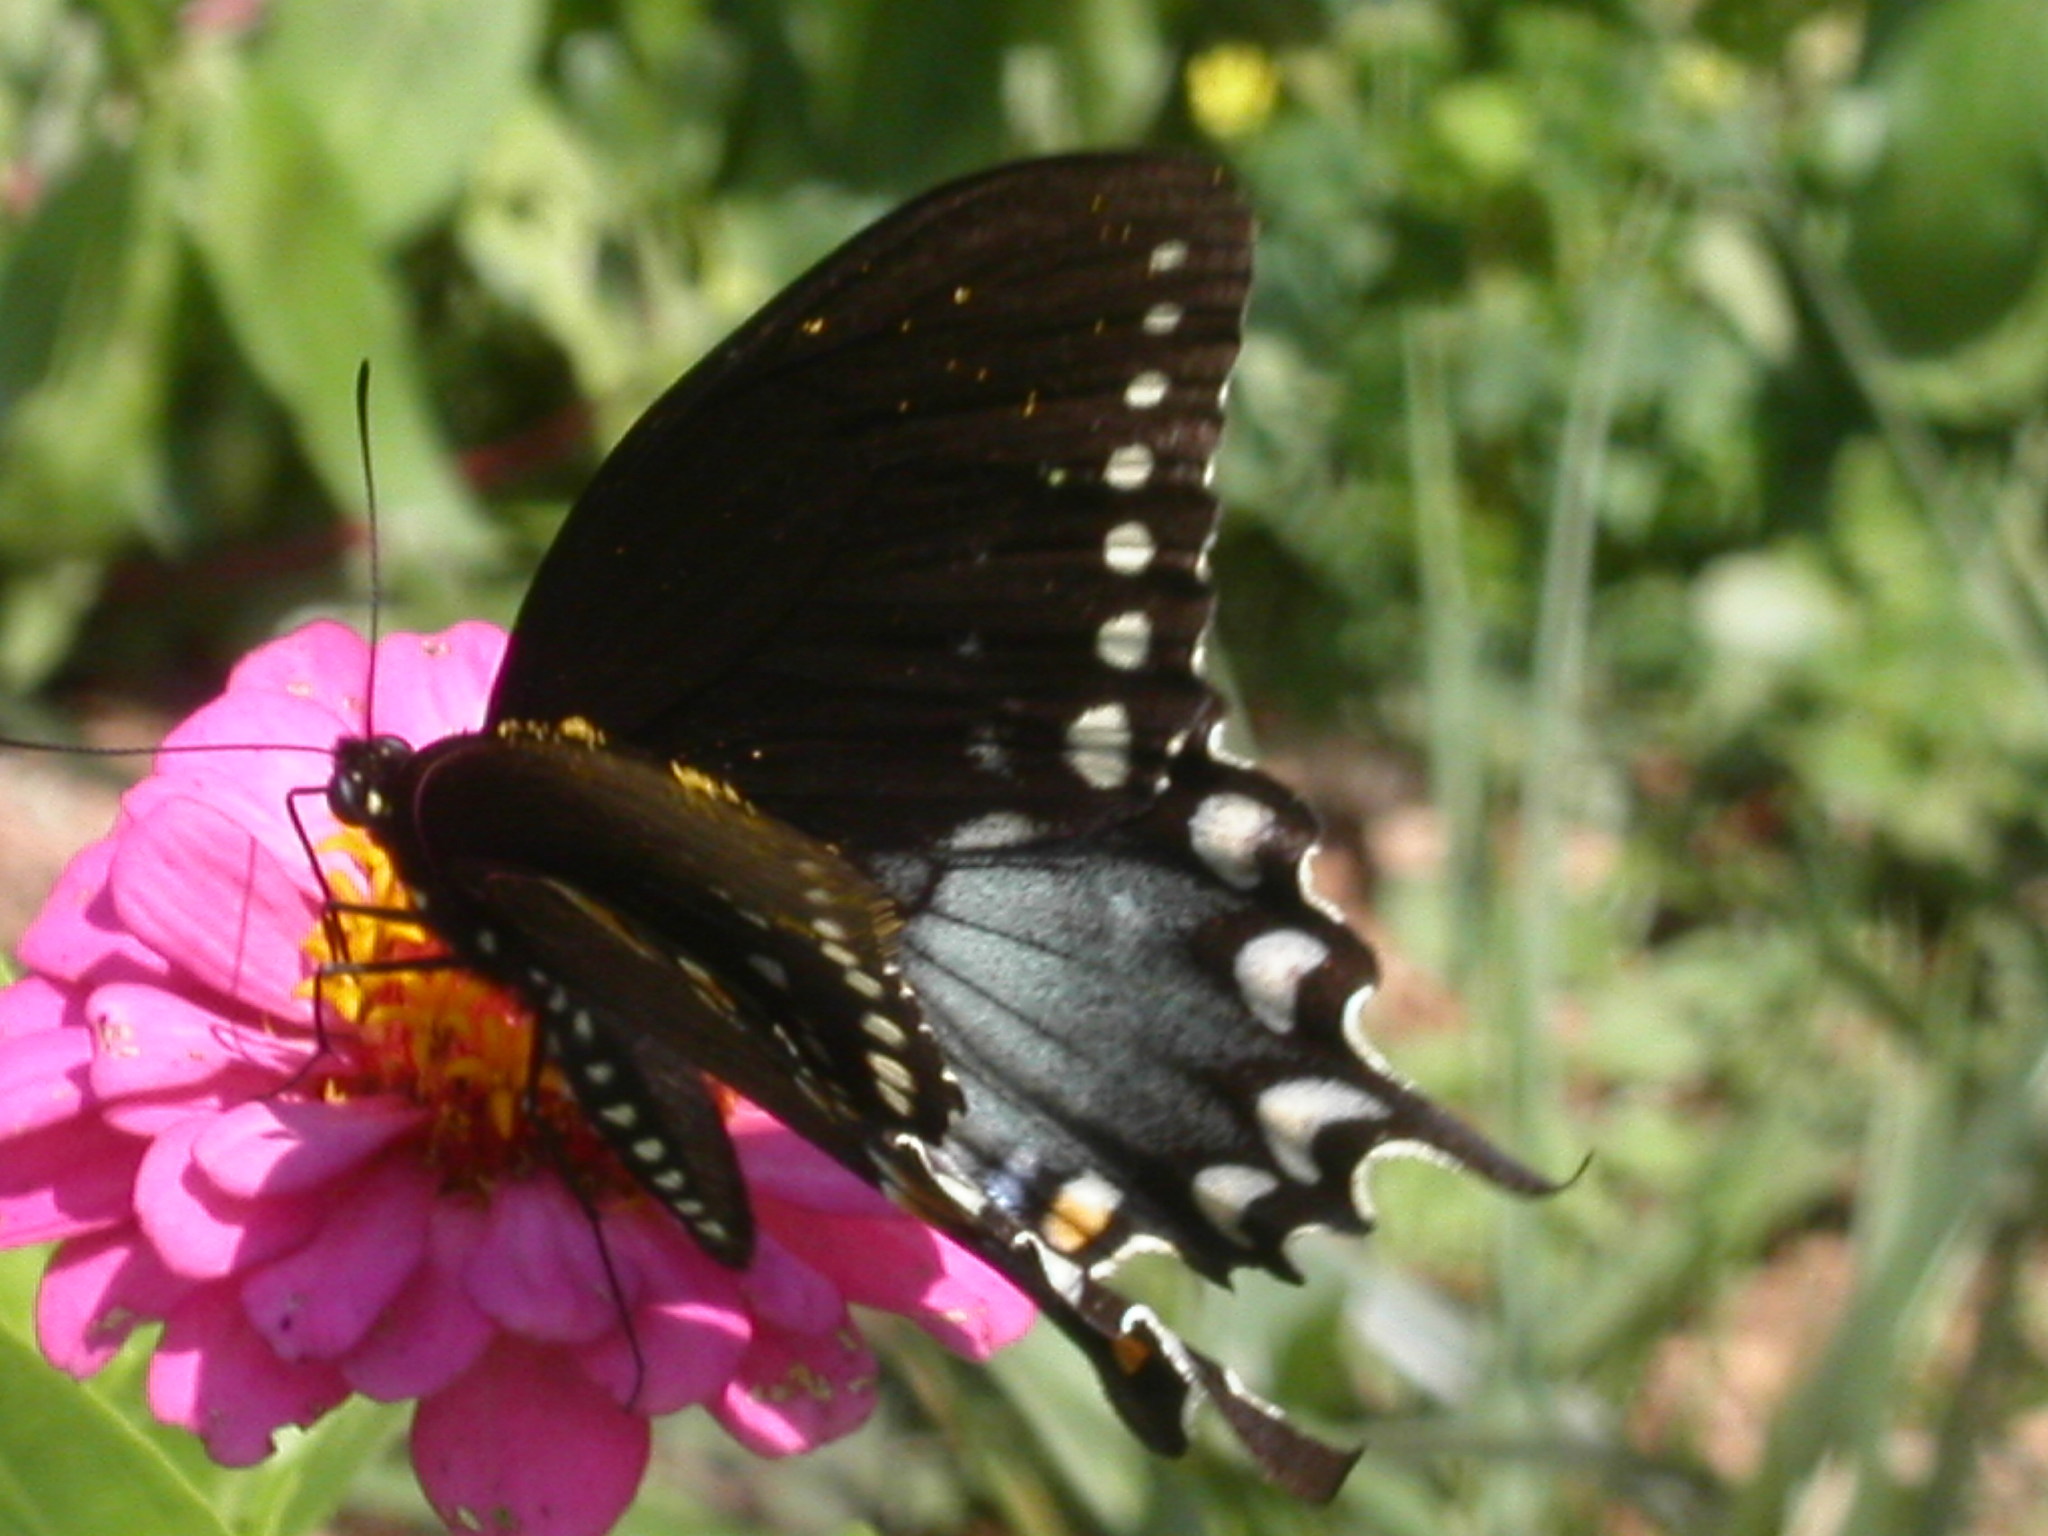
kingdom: Animalia
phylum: Arthropoda
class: Insecta
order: Lepidoptera
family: Papilionidae
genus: Papilio
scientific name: Papilio troilus
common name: Spicebush swallowtail
